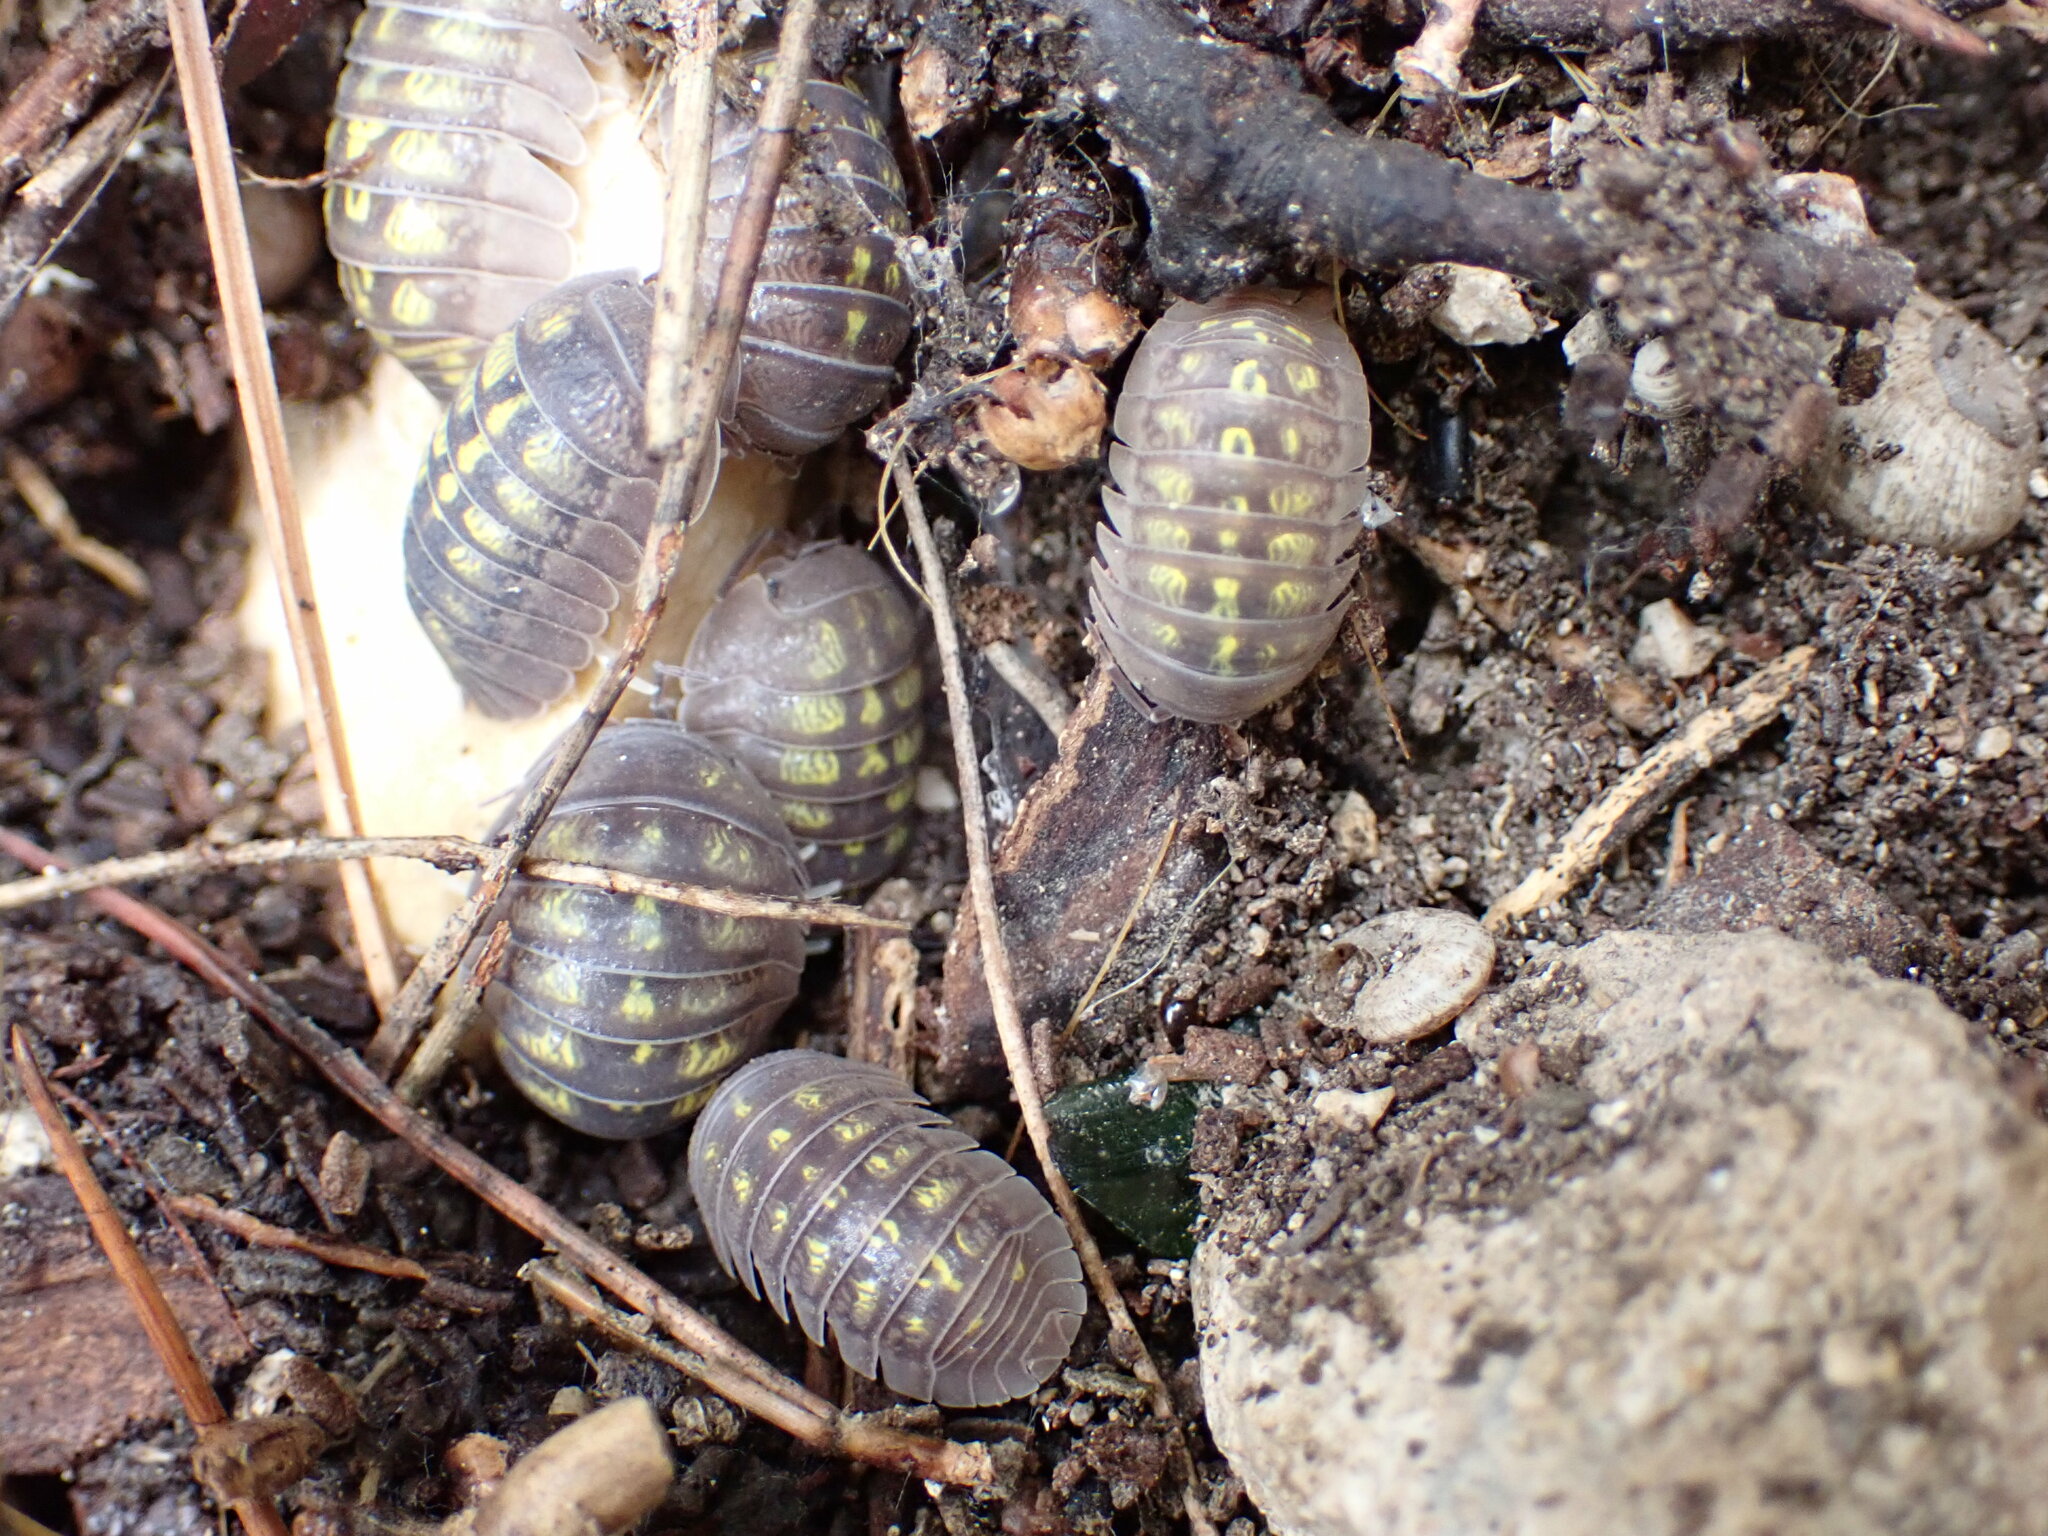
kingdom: Animalia
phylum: Arthropoda
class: Malacostraca
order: Isopoda
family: Armadillidiidae
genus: Armadillidium
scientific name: Armadillidium granulatum
